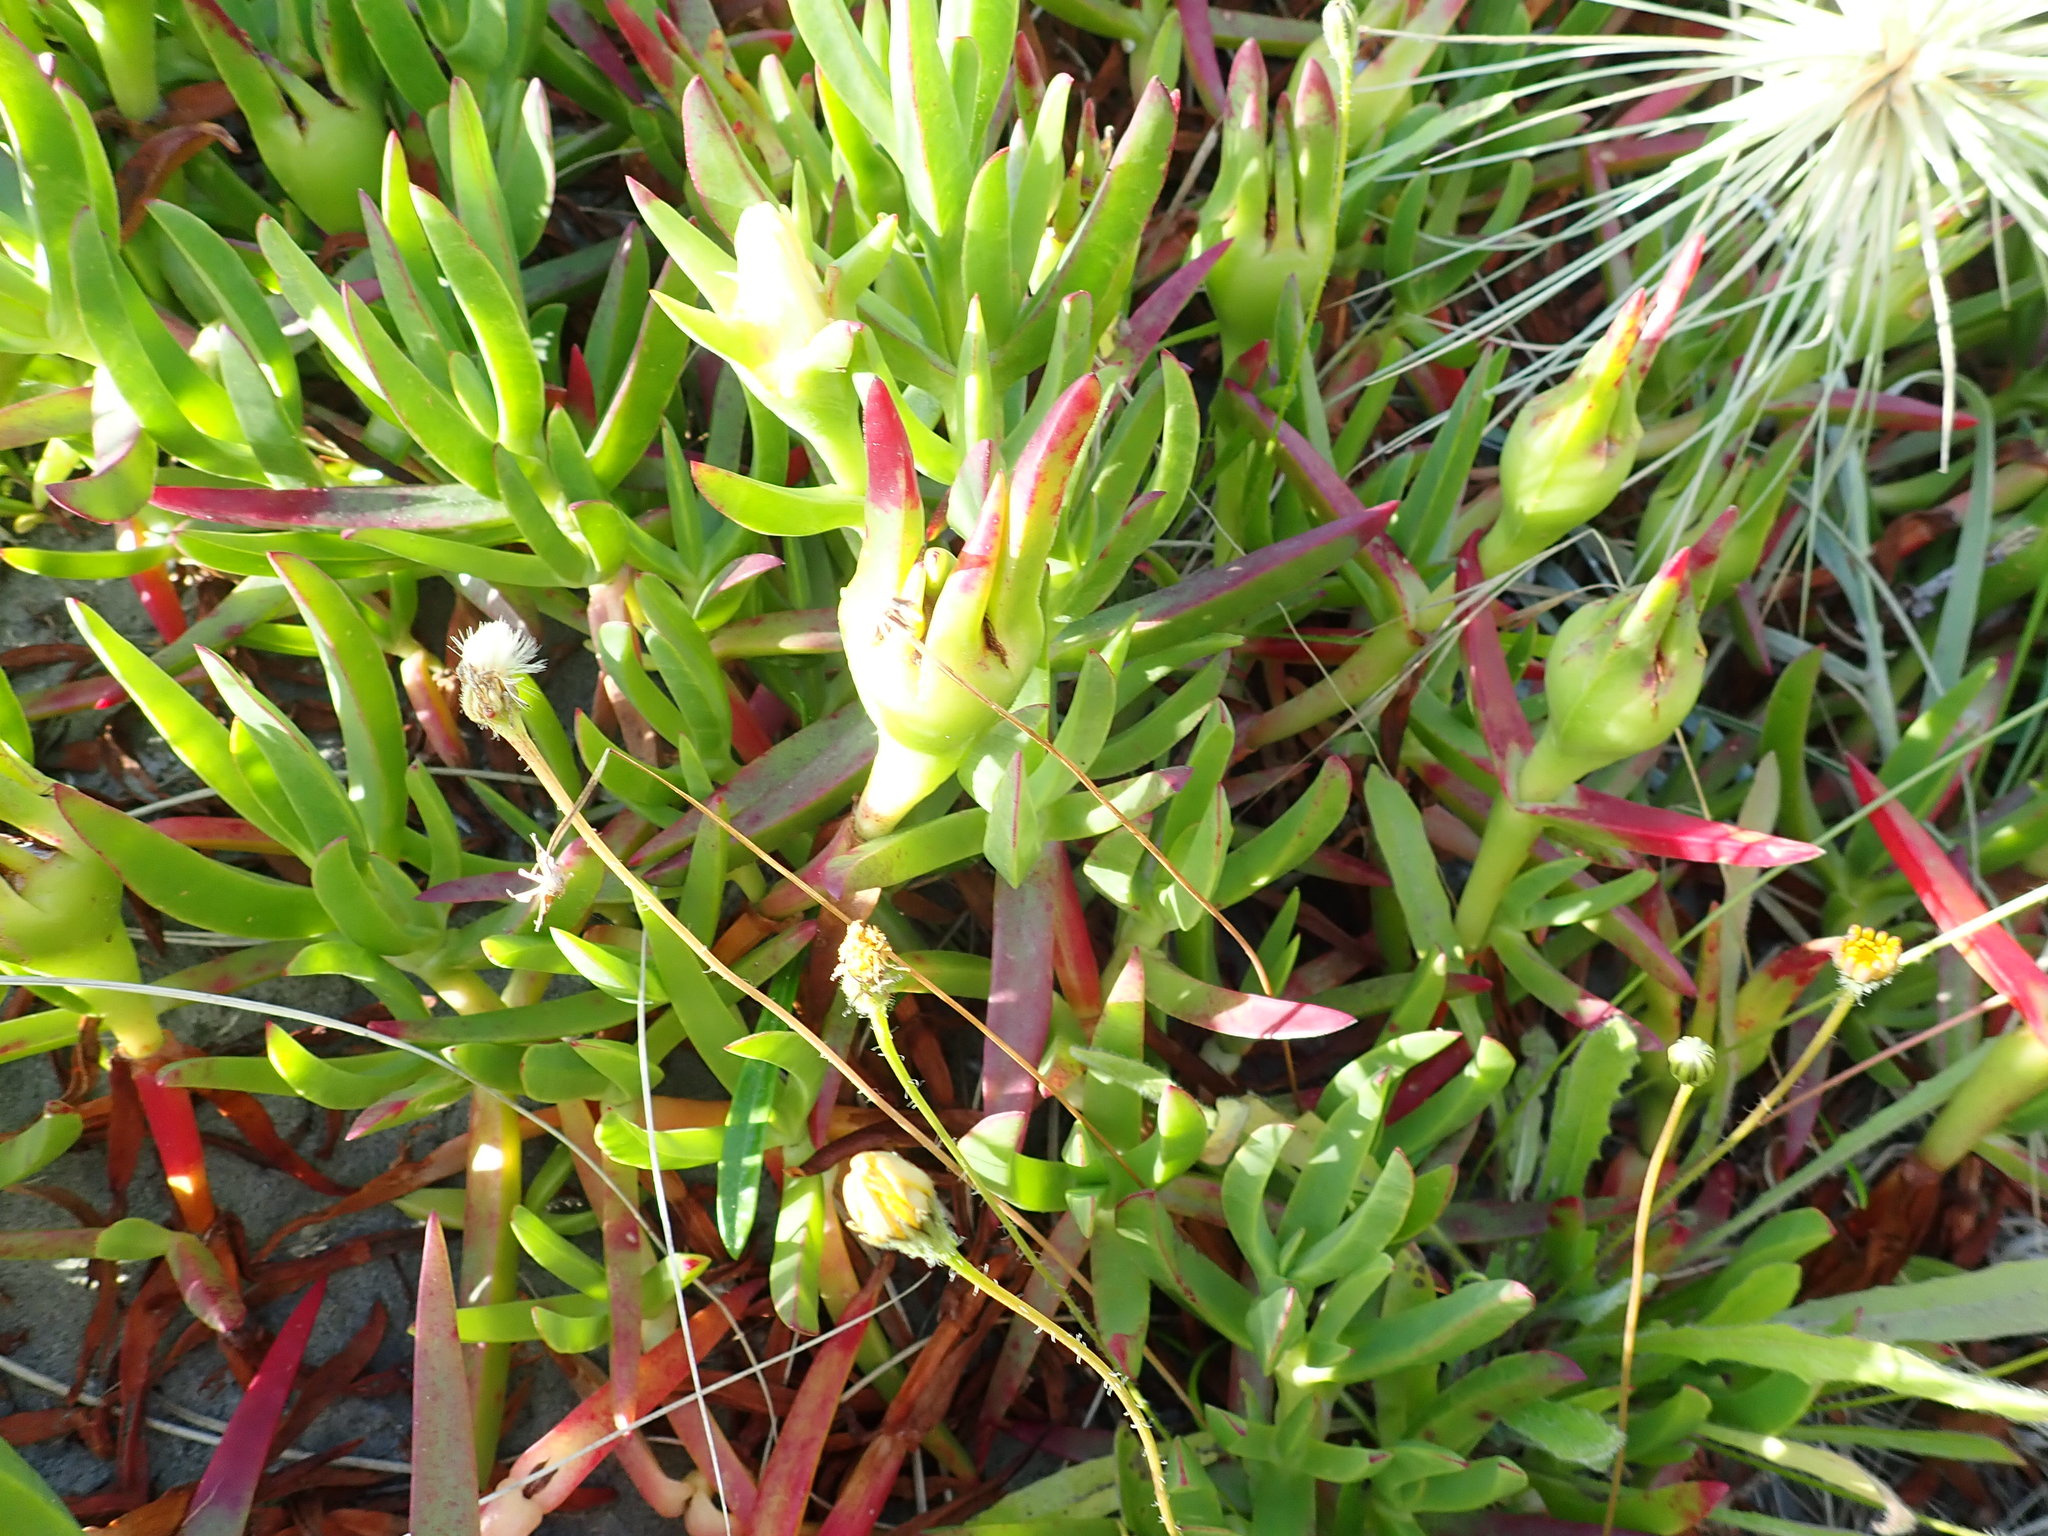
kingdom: Plantae
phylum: Tracheophyta
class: Magnoliopsida
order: Caryophyllales
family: Aizoaceae
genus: Carpobrotus
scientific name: Carpobrotus edulis
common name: Hottentot-fig
